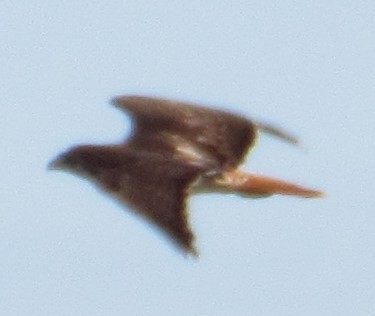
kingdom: Animalia
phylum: Chordata
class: Aves
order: Accipitriformes
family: Accipitridae
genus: Buteo
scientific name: Buteo jamaicensis
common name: Red-tailed hawk
